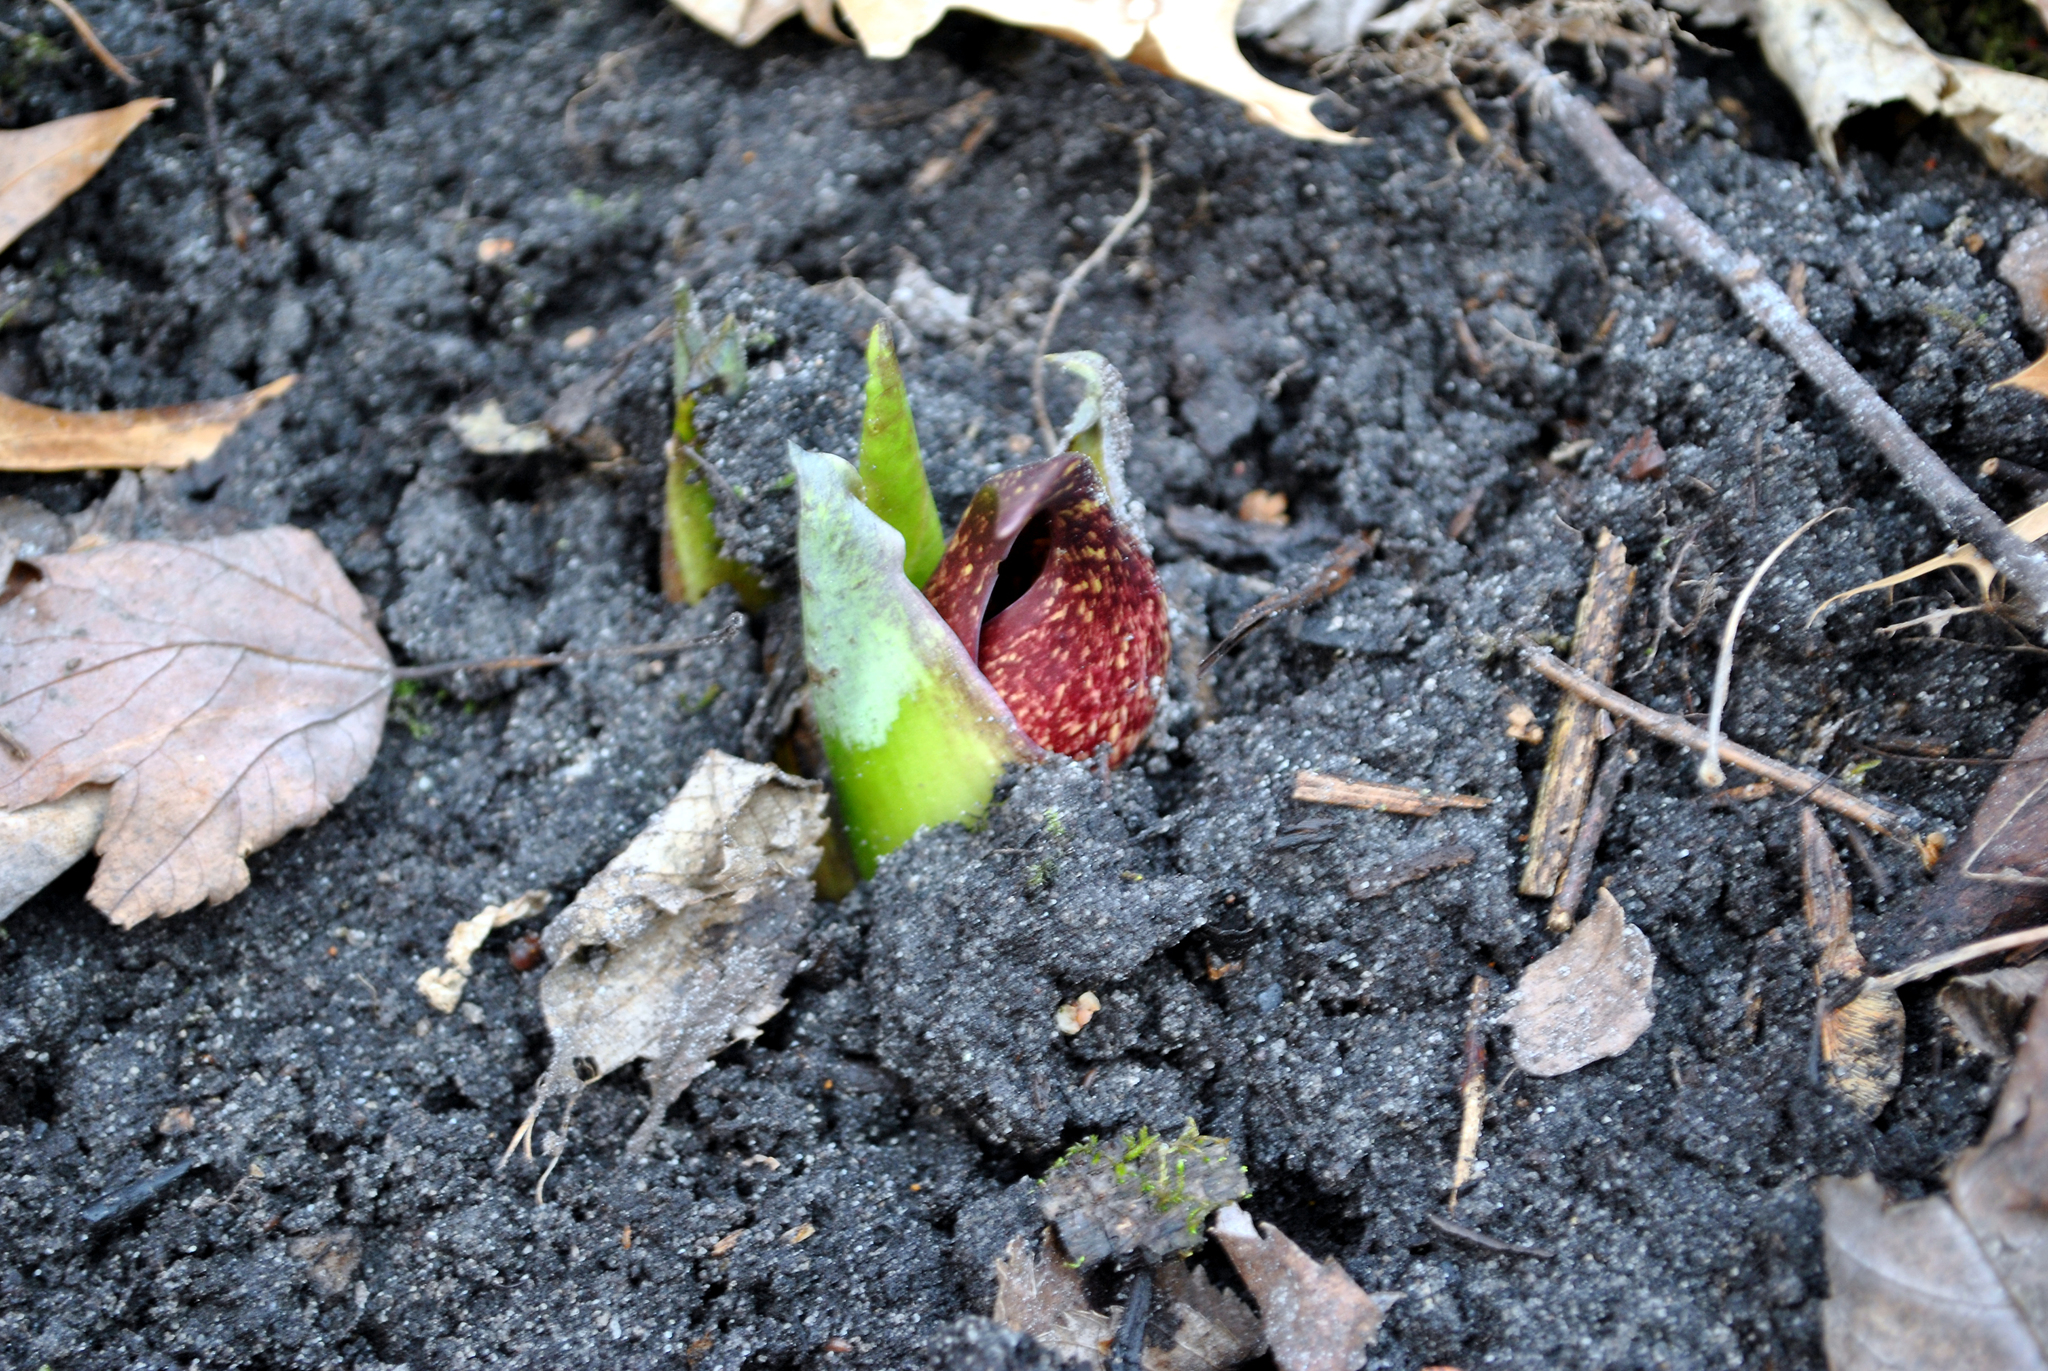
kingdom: Plantae
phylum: Tracheophyta
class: Liliopsida
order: Alismatales
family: Araceae
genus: Symplocarpus
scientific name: Symplocarpus foetidus
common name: Eastern skunk cabbage
